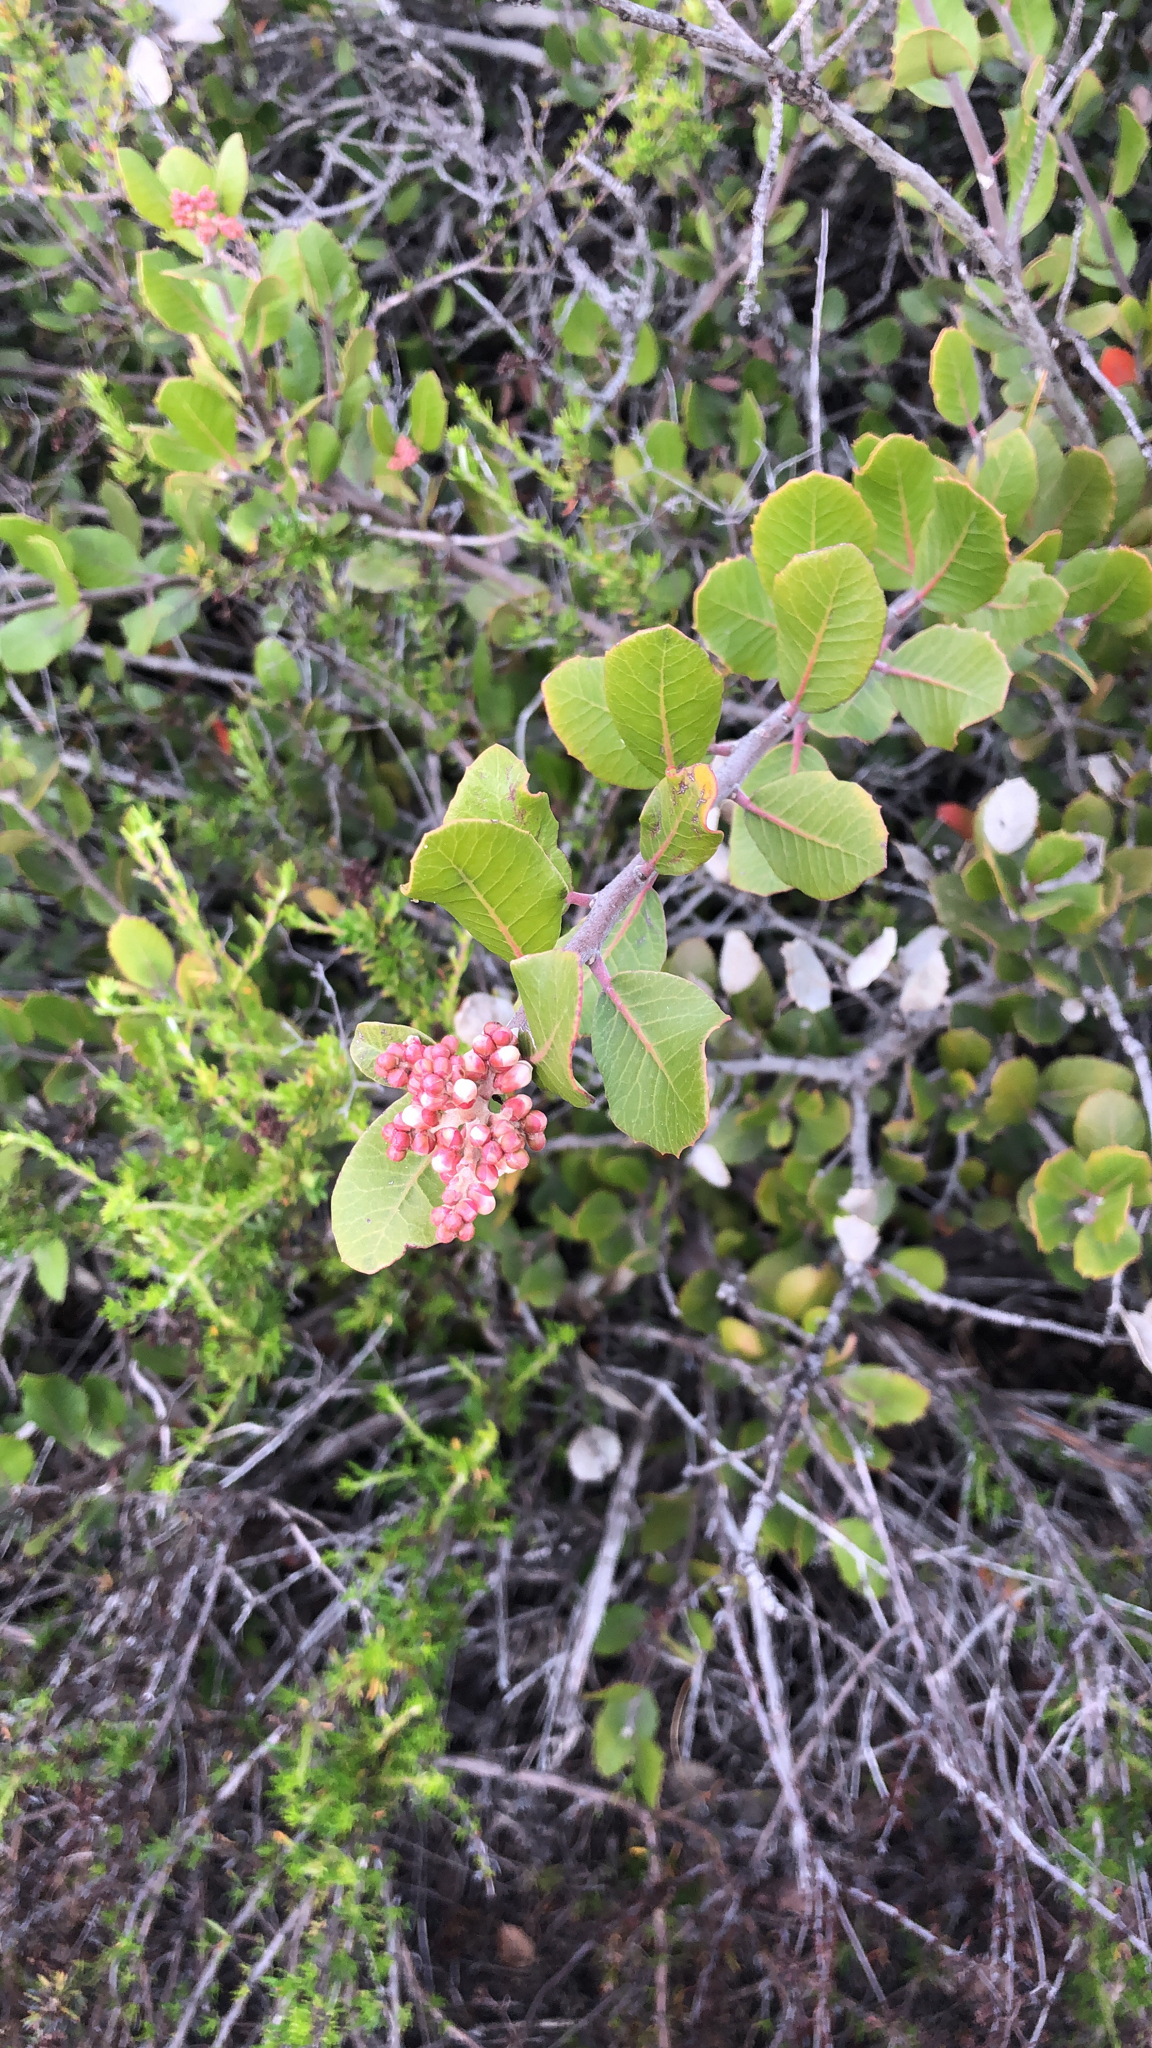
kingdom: Plantae
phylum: Tracheophyta
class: Magnoliopsida
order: Sapindales
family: Anacardiaceae
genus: Rhus
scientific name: Rhus integrifolia
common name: Lemonade sumac
